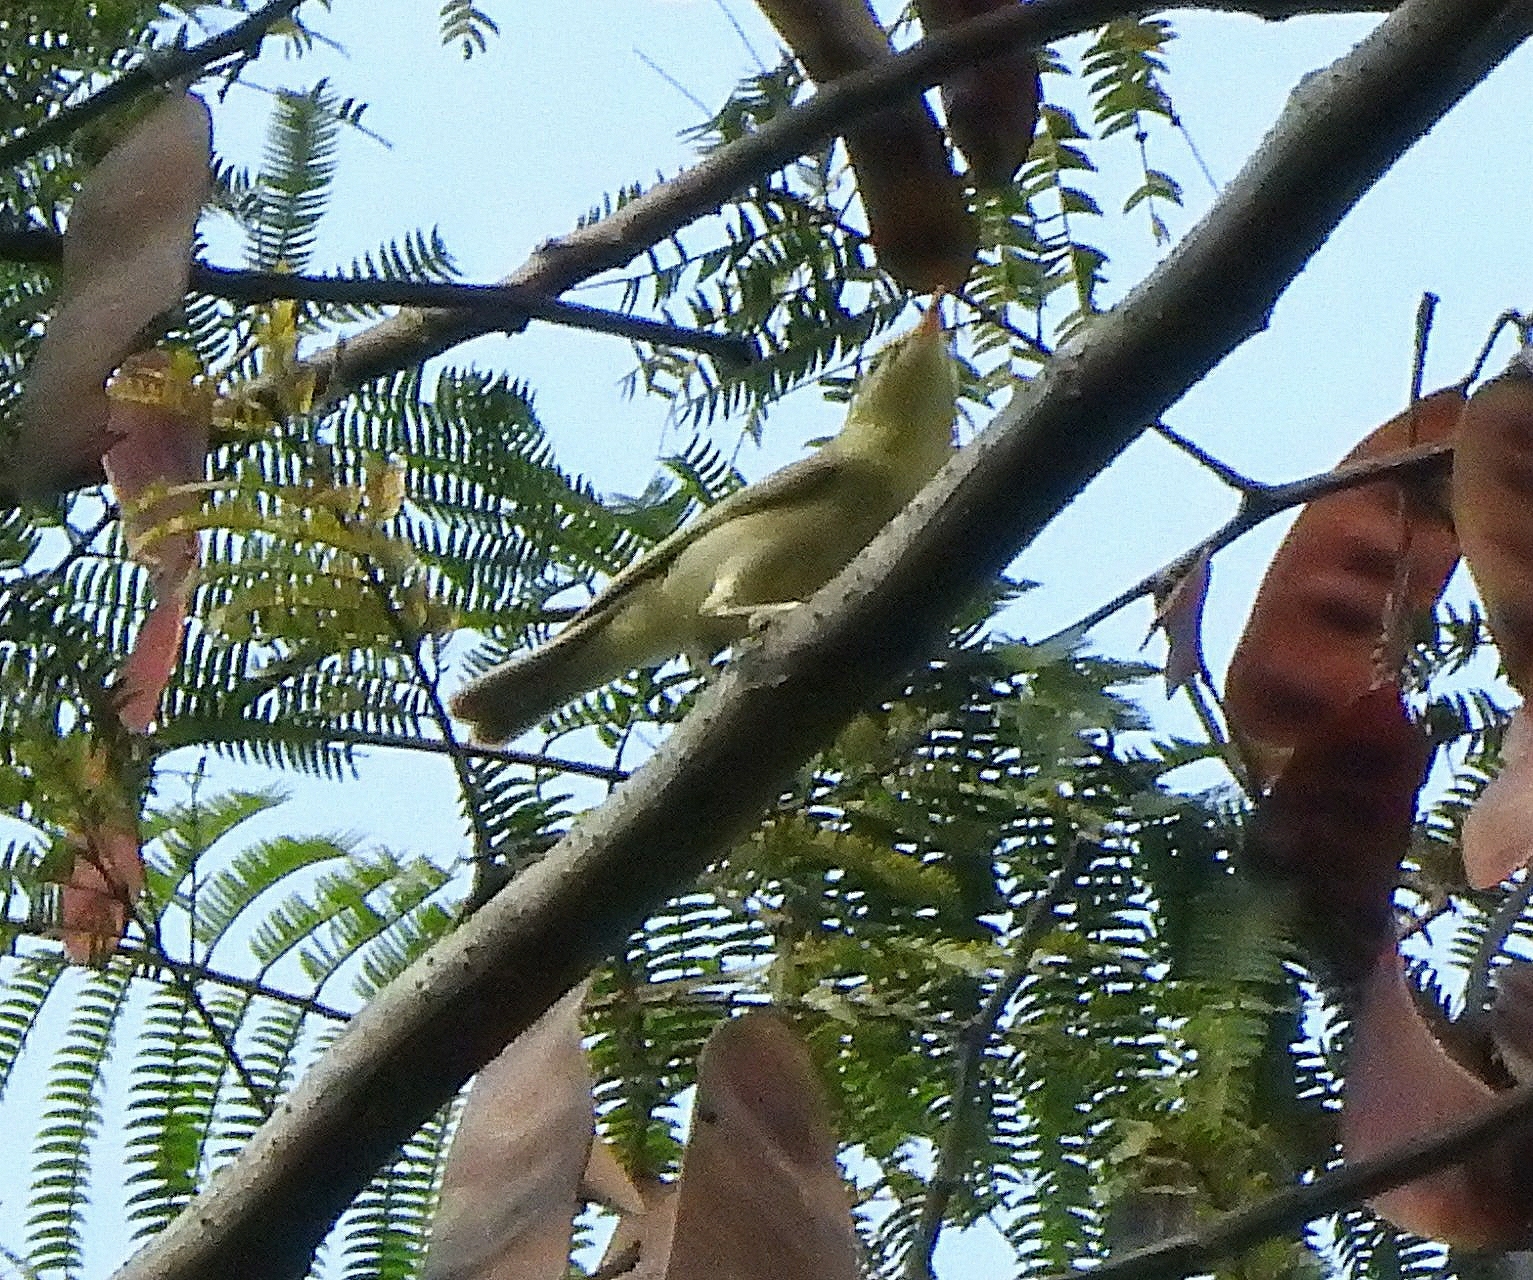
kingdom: Animalia
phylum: Chordata
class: Aves
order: Passeriformes
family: Phylloscopidae
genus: Phylloscopus
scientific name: Phylloscopus trochiloides
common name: Greenish warbler
